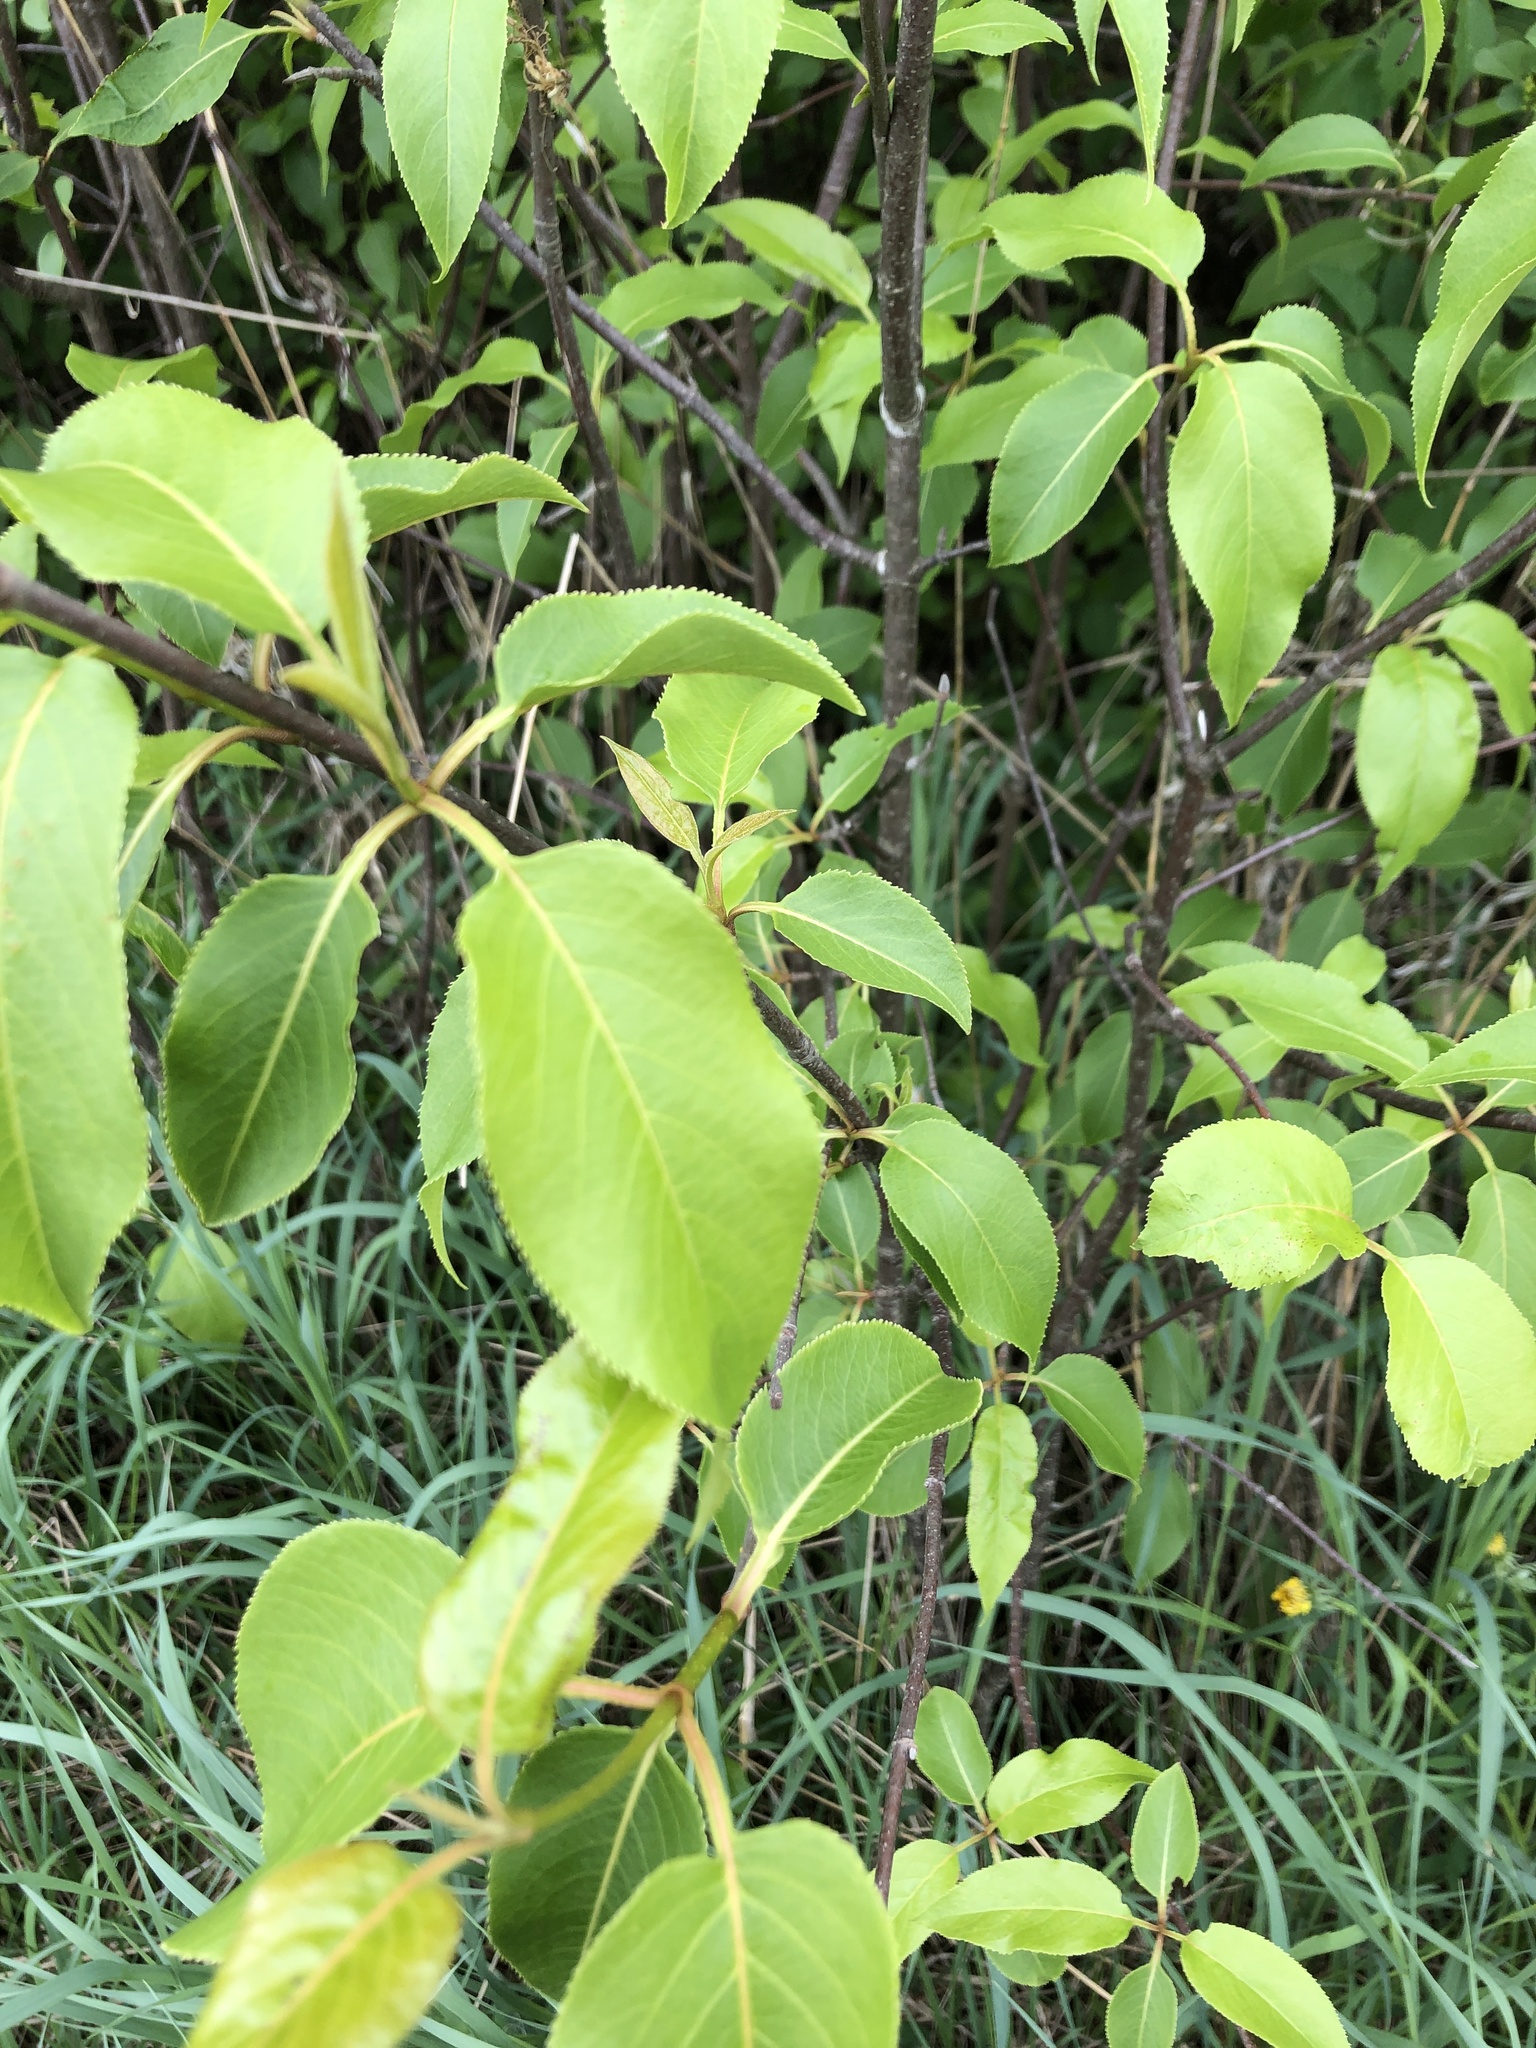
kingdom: Plantae
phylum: Tracheophyta
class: Magnoliopsida
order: Dipsacales
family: Viburnaceae
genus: Viburnum
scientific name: Viburnum lentago
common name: Black haw
